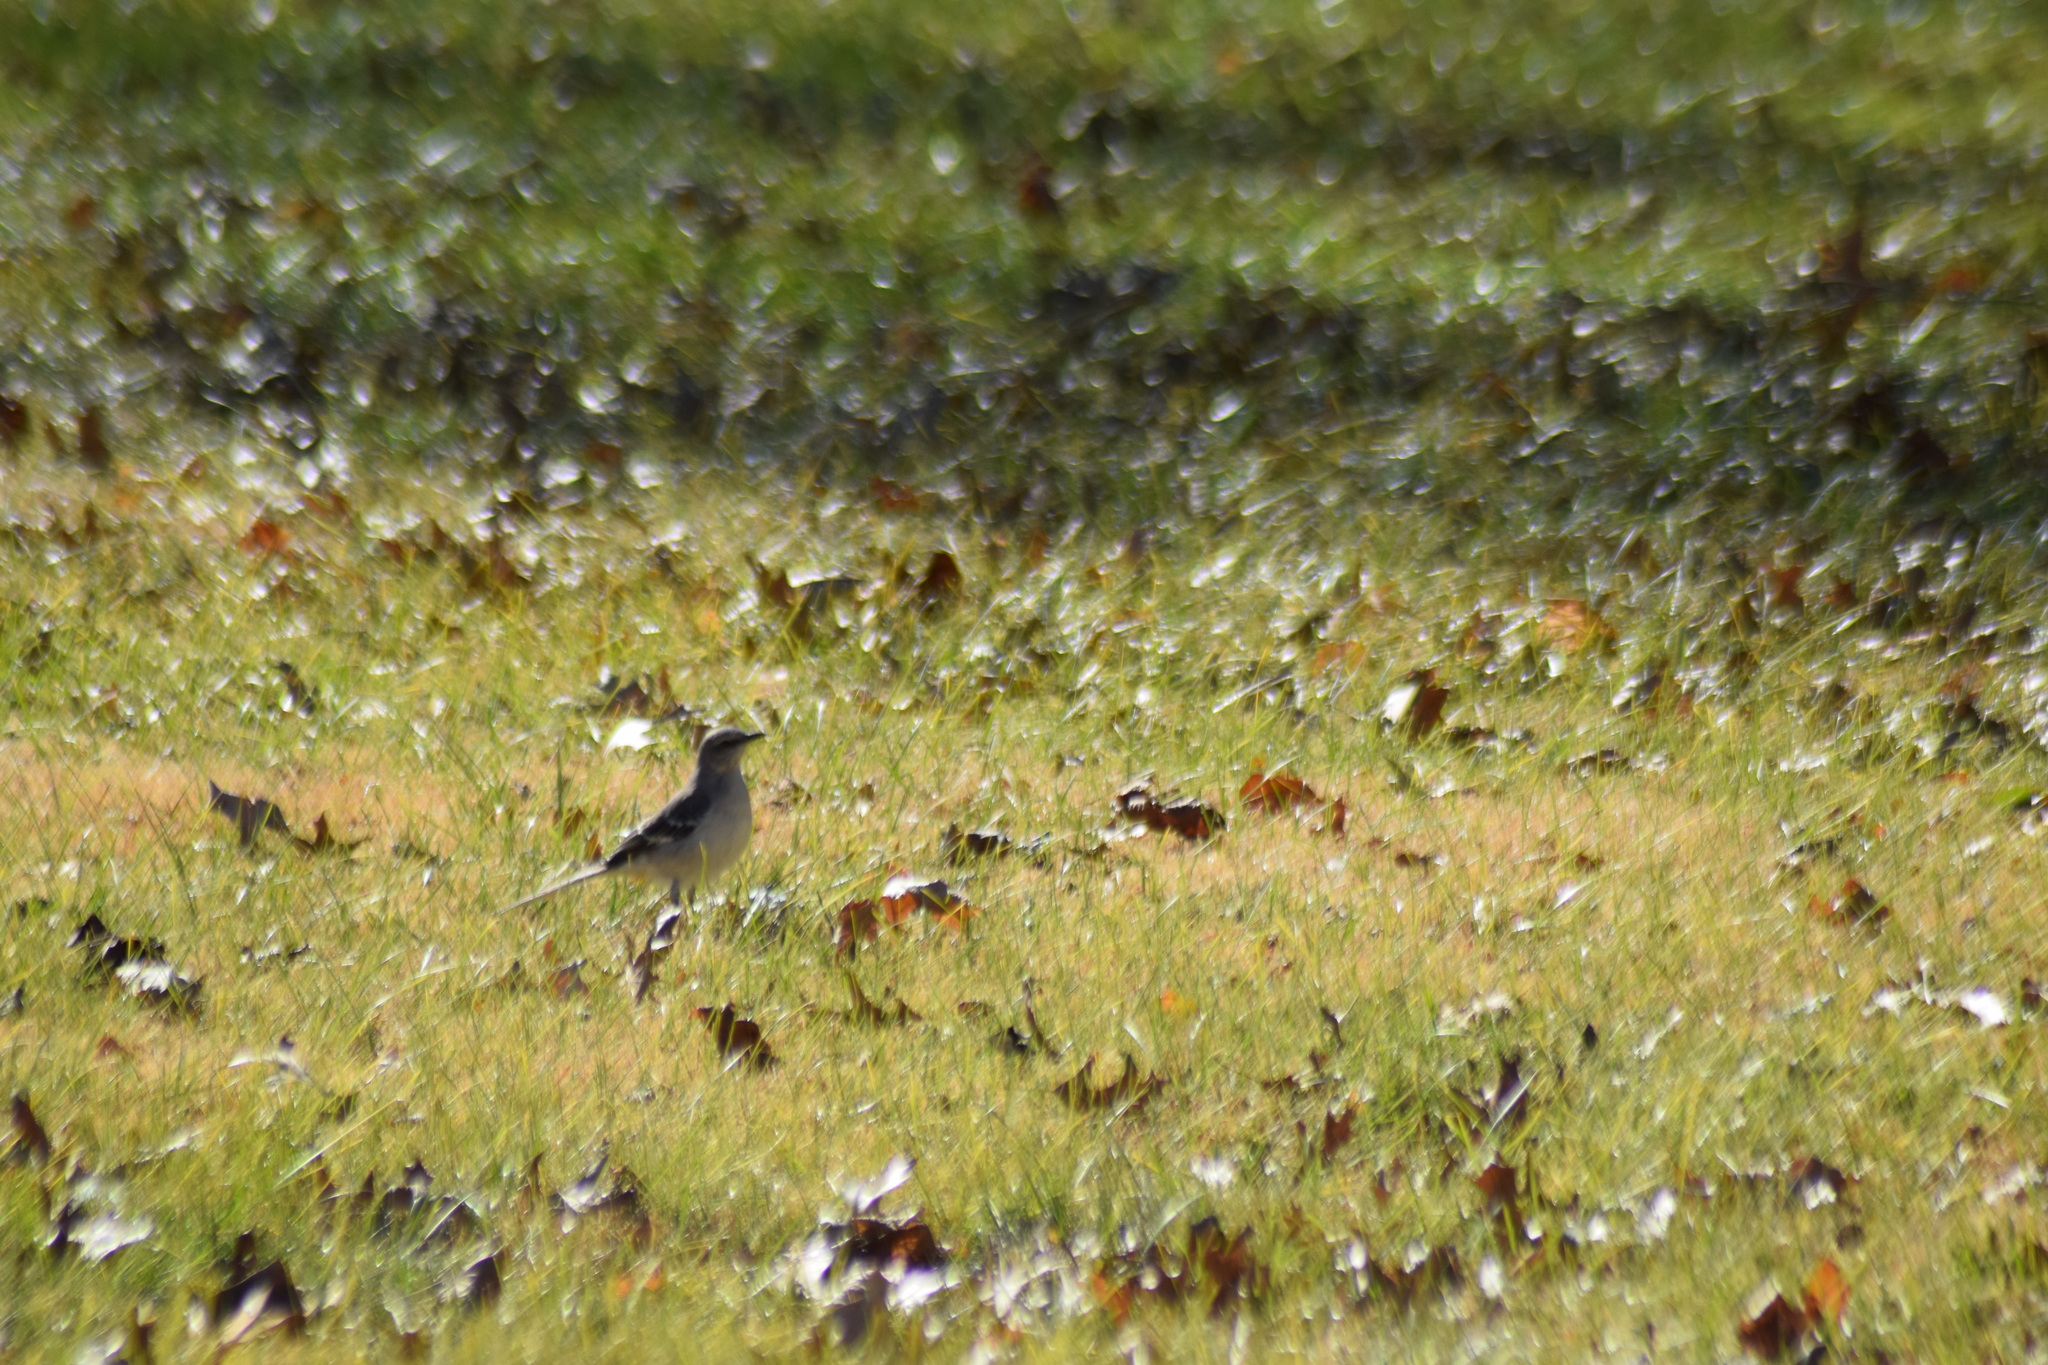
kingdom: Animalia
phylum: Chordata
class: Aves
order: Passeriformes
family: Mimidae
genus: Mimus
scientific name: Mimus polyglottos
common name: Northern mockingbird
